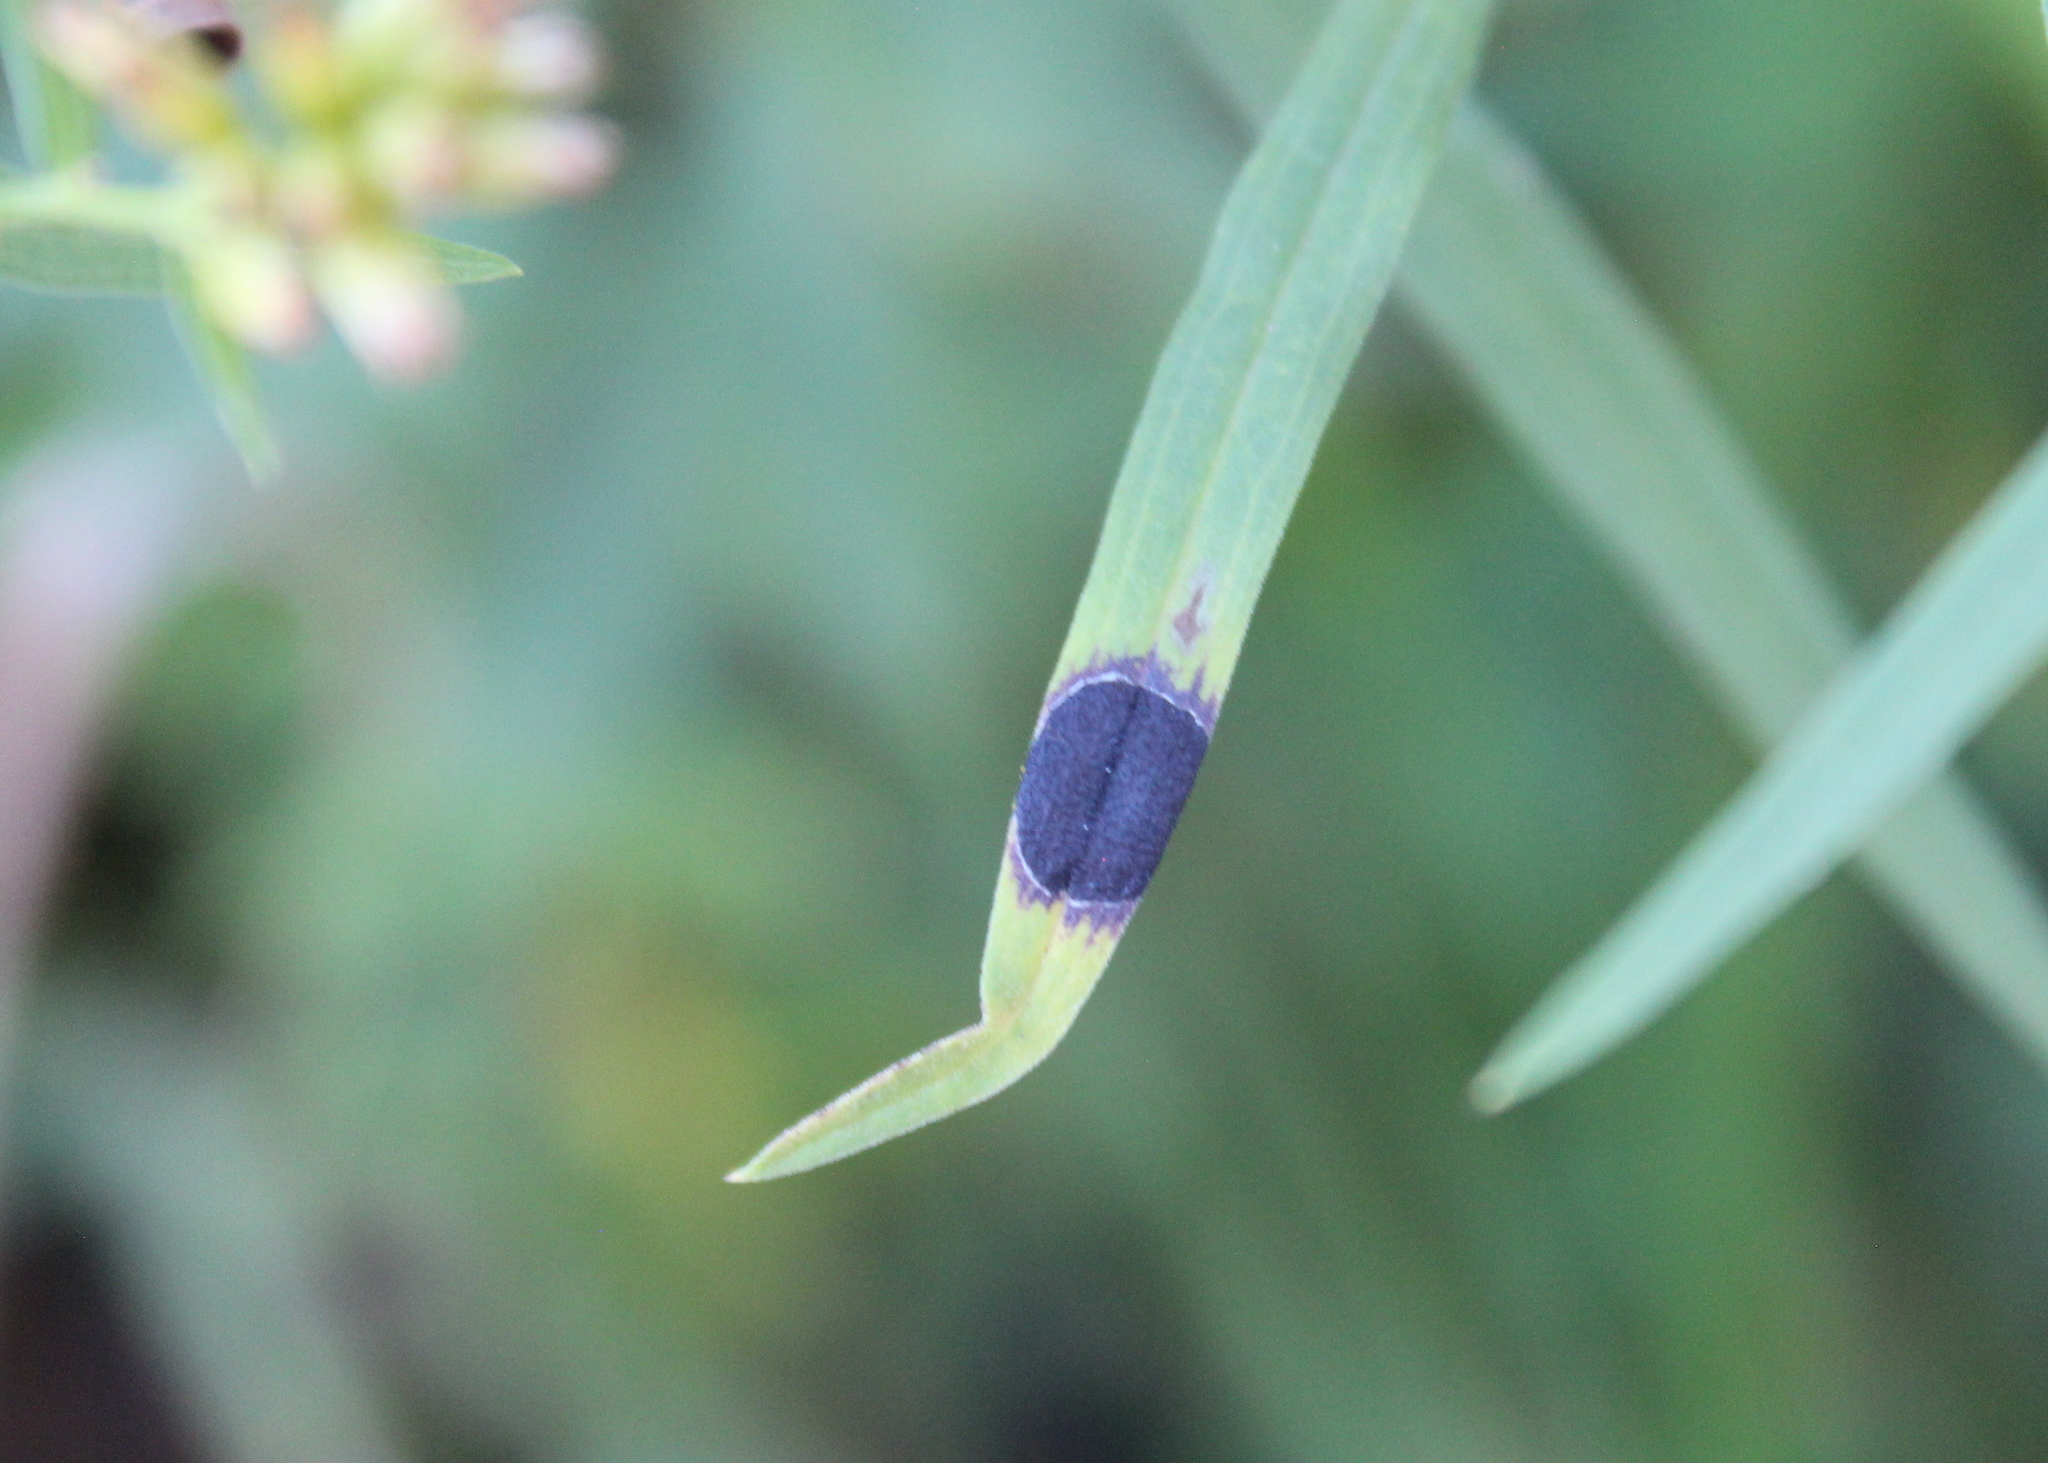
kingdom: Animalia
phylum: Arthropoda
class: Insecta
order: Diptera
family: Cecidomyiidae
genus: Asteromyia
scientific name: Asteromyia euthamiae
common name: Euthamia leaf gall midge
